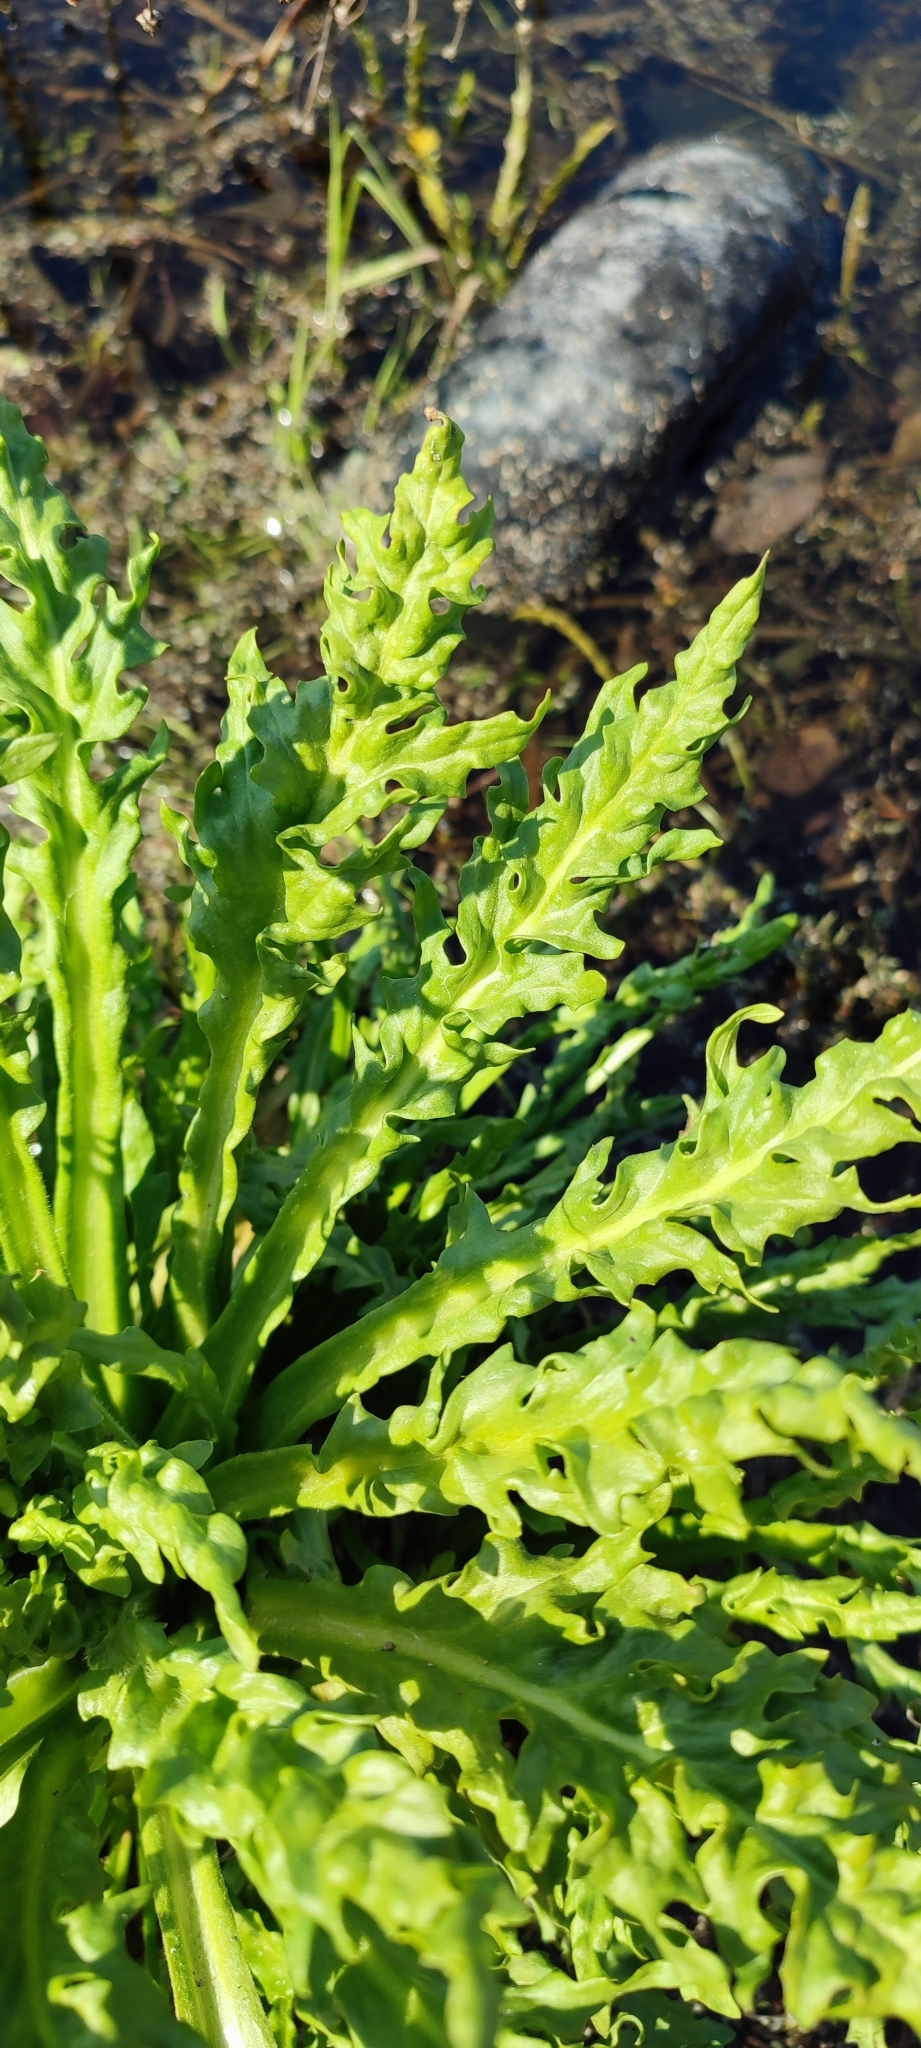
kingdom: Plantae
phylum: Tracheophyta
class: Magnoliopsida
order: Asterales
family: Asteraceae
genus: Tephroseris
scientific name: Tephroseris palustris
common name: Marsh fleawort
